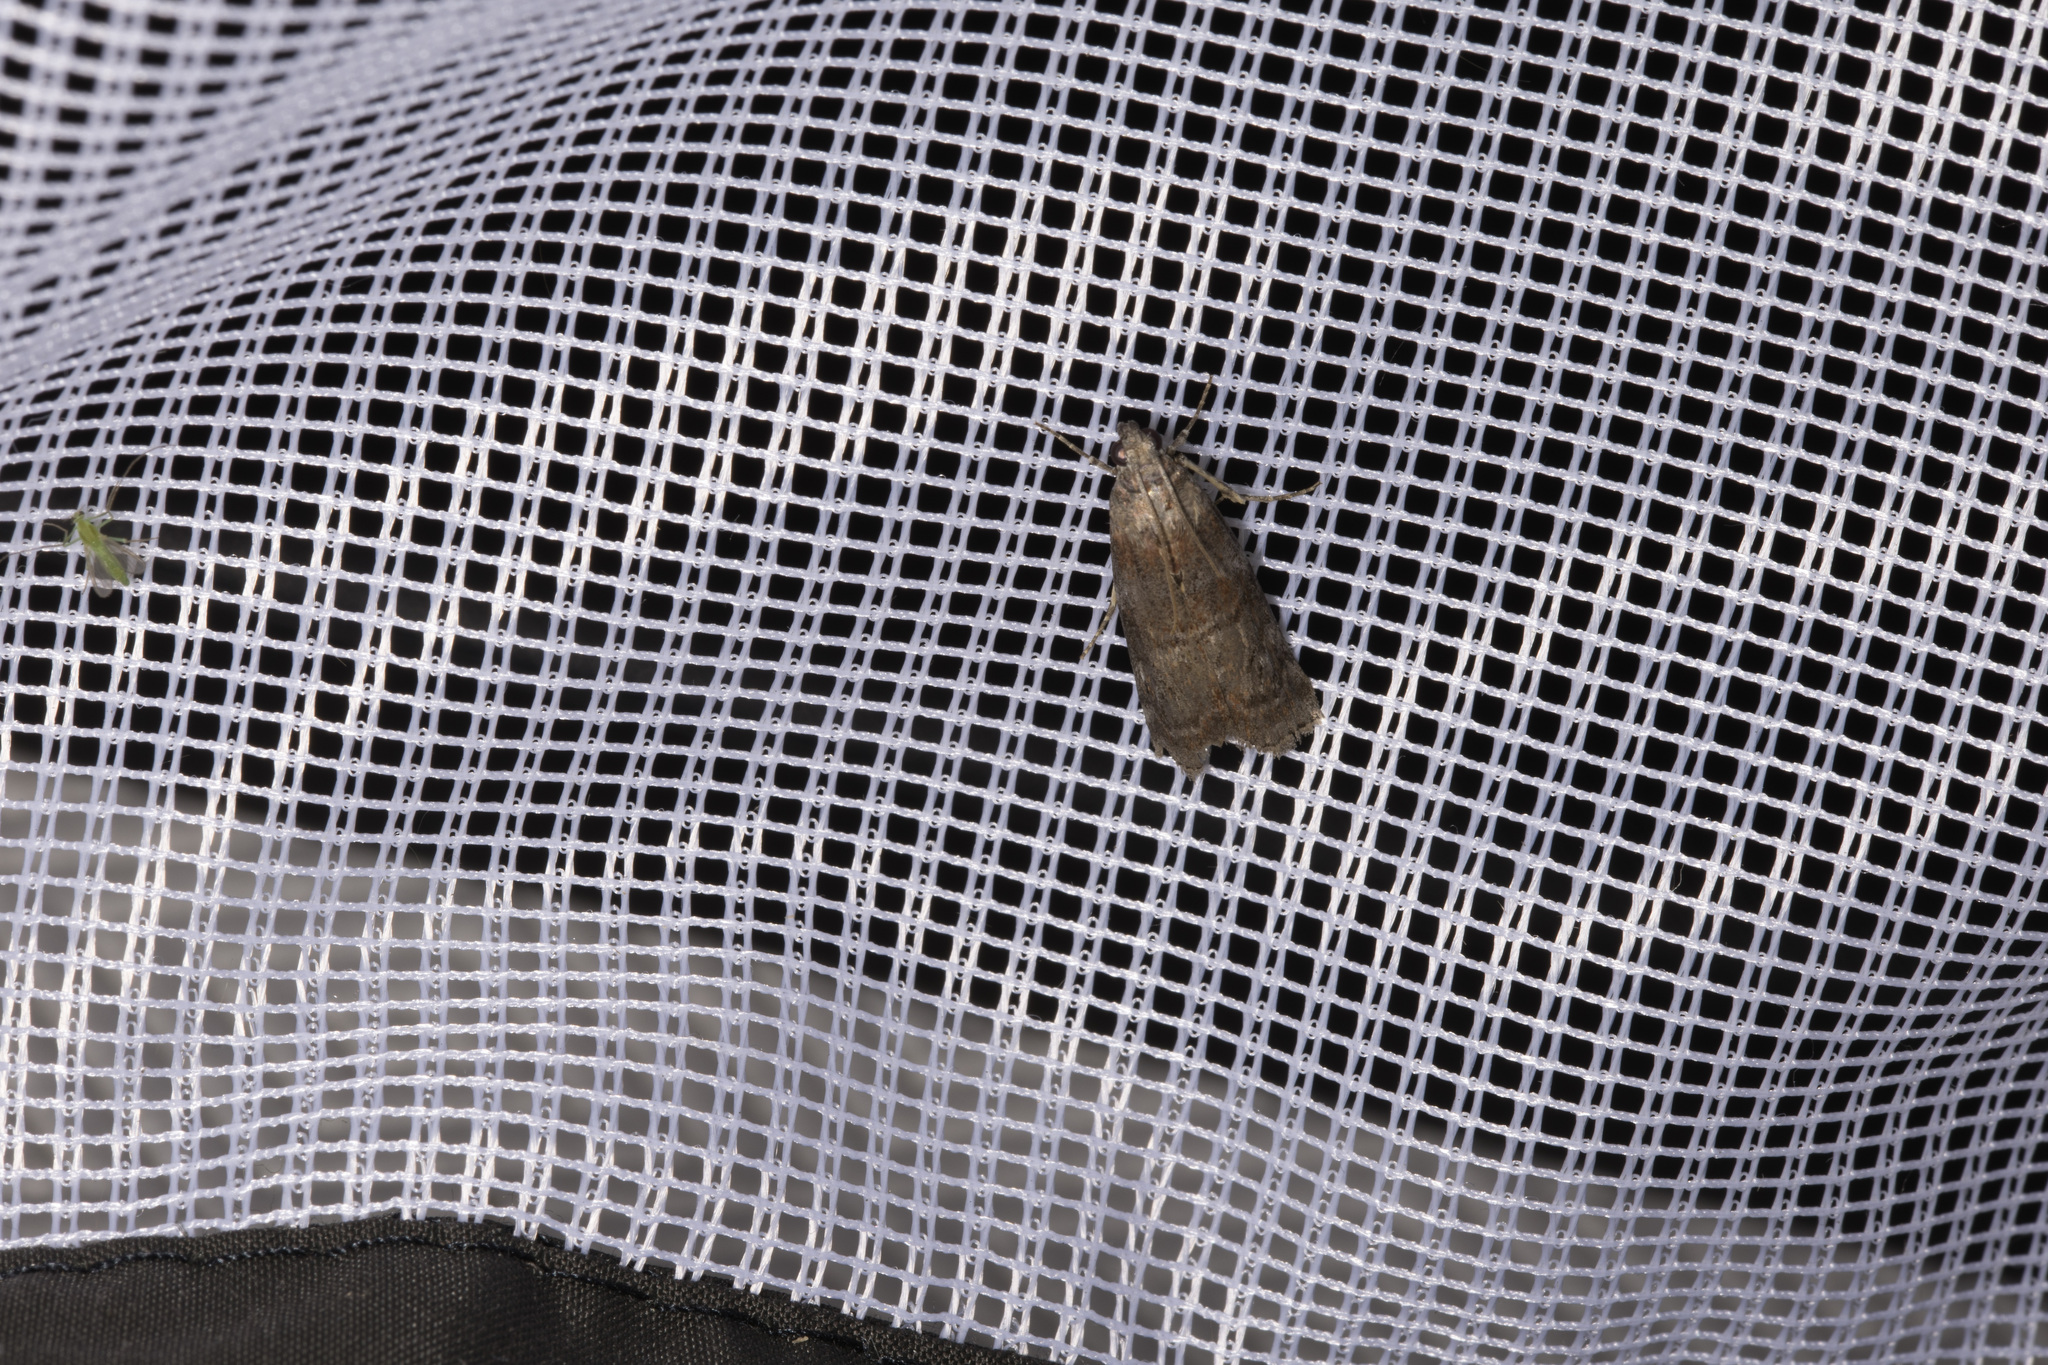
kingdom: Animalia
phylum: Arthropoda
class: Insecta
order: Lepidoptera
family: Pyralidae
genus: Phycita
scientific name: Phycita roborella
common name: Dotted oak knot-horn
